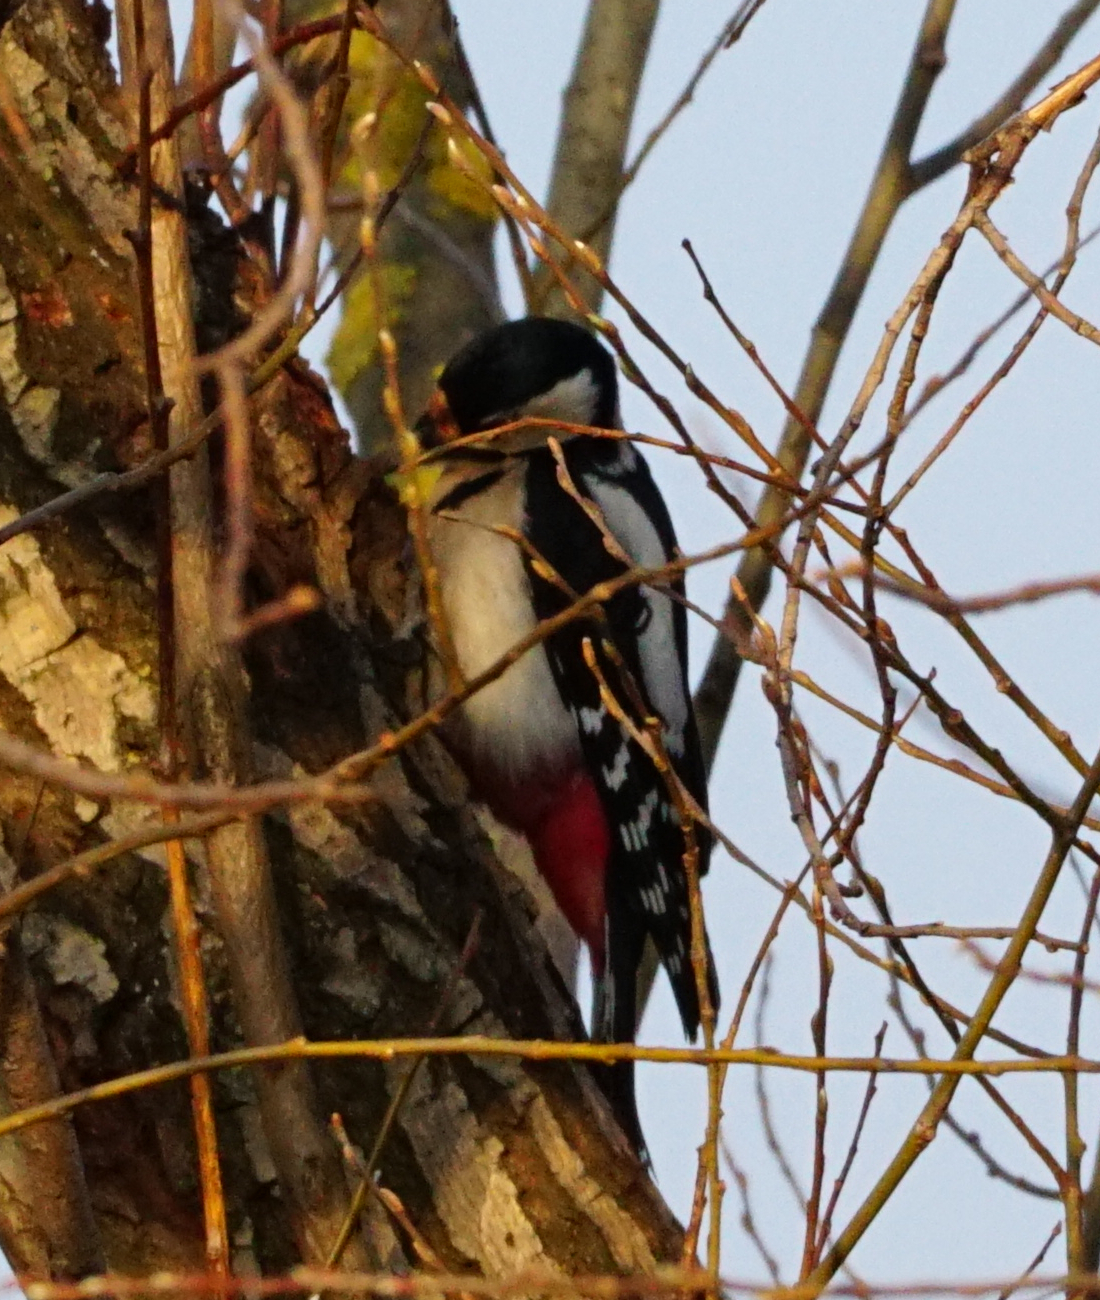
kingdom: Animalia
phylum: Chordata
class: Aves
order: Piciformes
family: Picidae
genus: Dendrocopos
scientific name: Dendrocopos major
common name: Great spotted woodpecker
